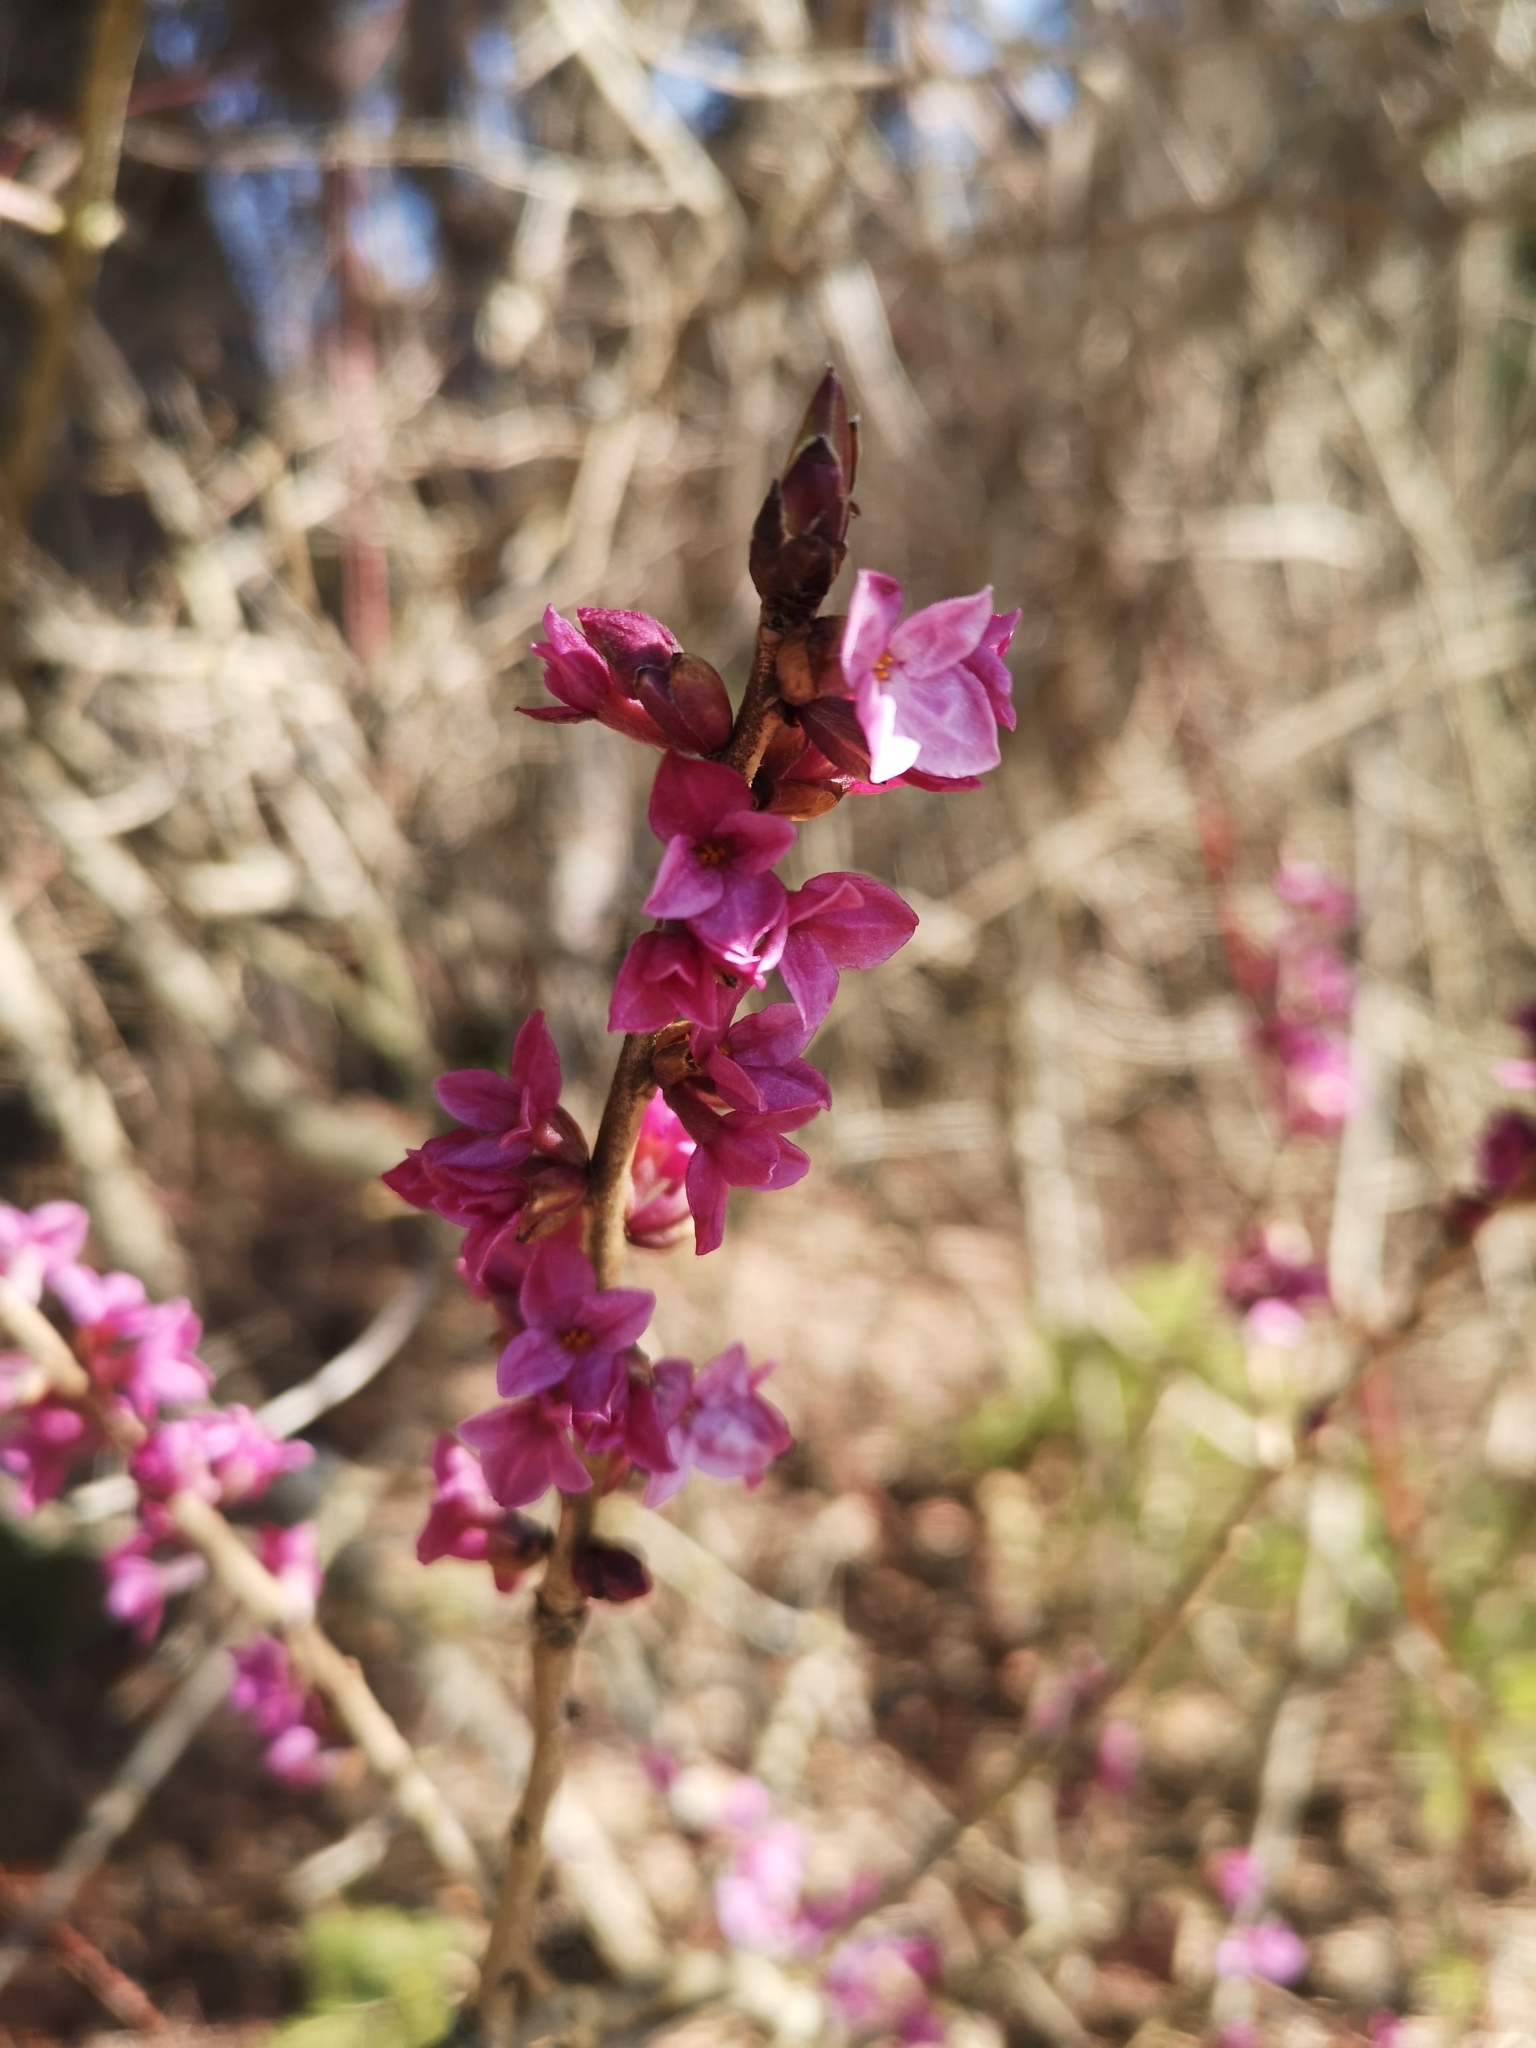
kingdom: Plantae
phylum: Tracheophyta
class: Magnoliopsida
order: Malvales
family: Thymelaeaceae
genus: Daphne
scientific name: Daphne mezereum
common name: Mezereon
